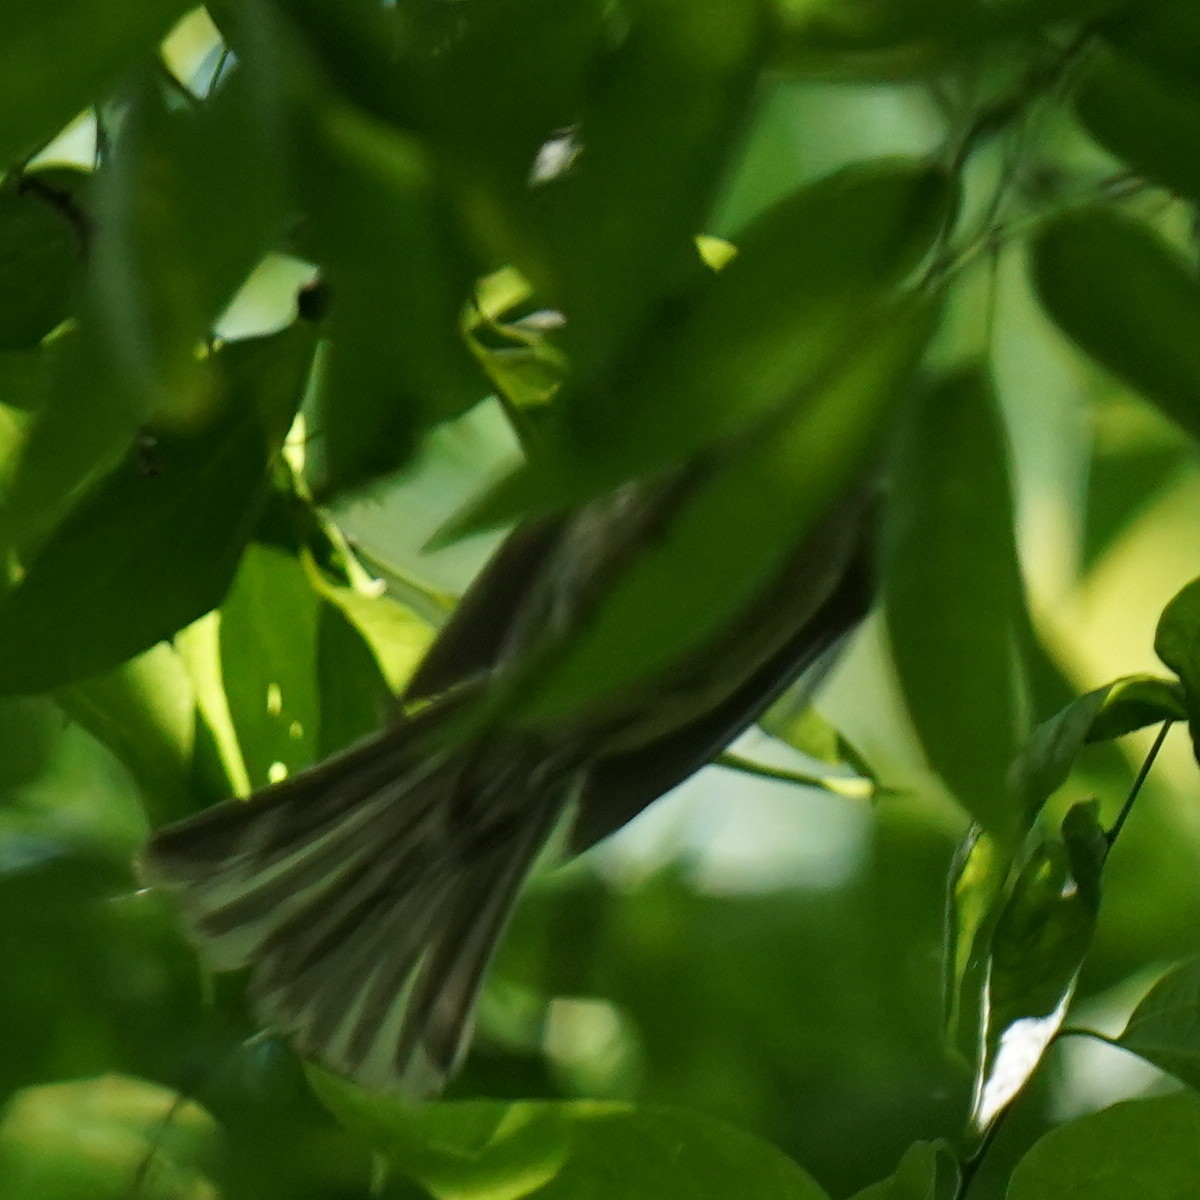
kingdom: Animalia
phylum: Chordata
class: Aves
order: Passeriformes
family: Paridae
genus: Baeolophus
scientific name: Baeolophus bicolor
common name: Tufted titmouse
